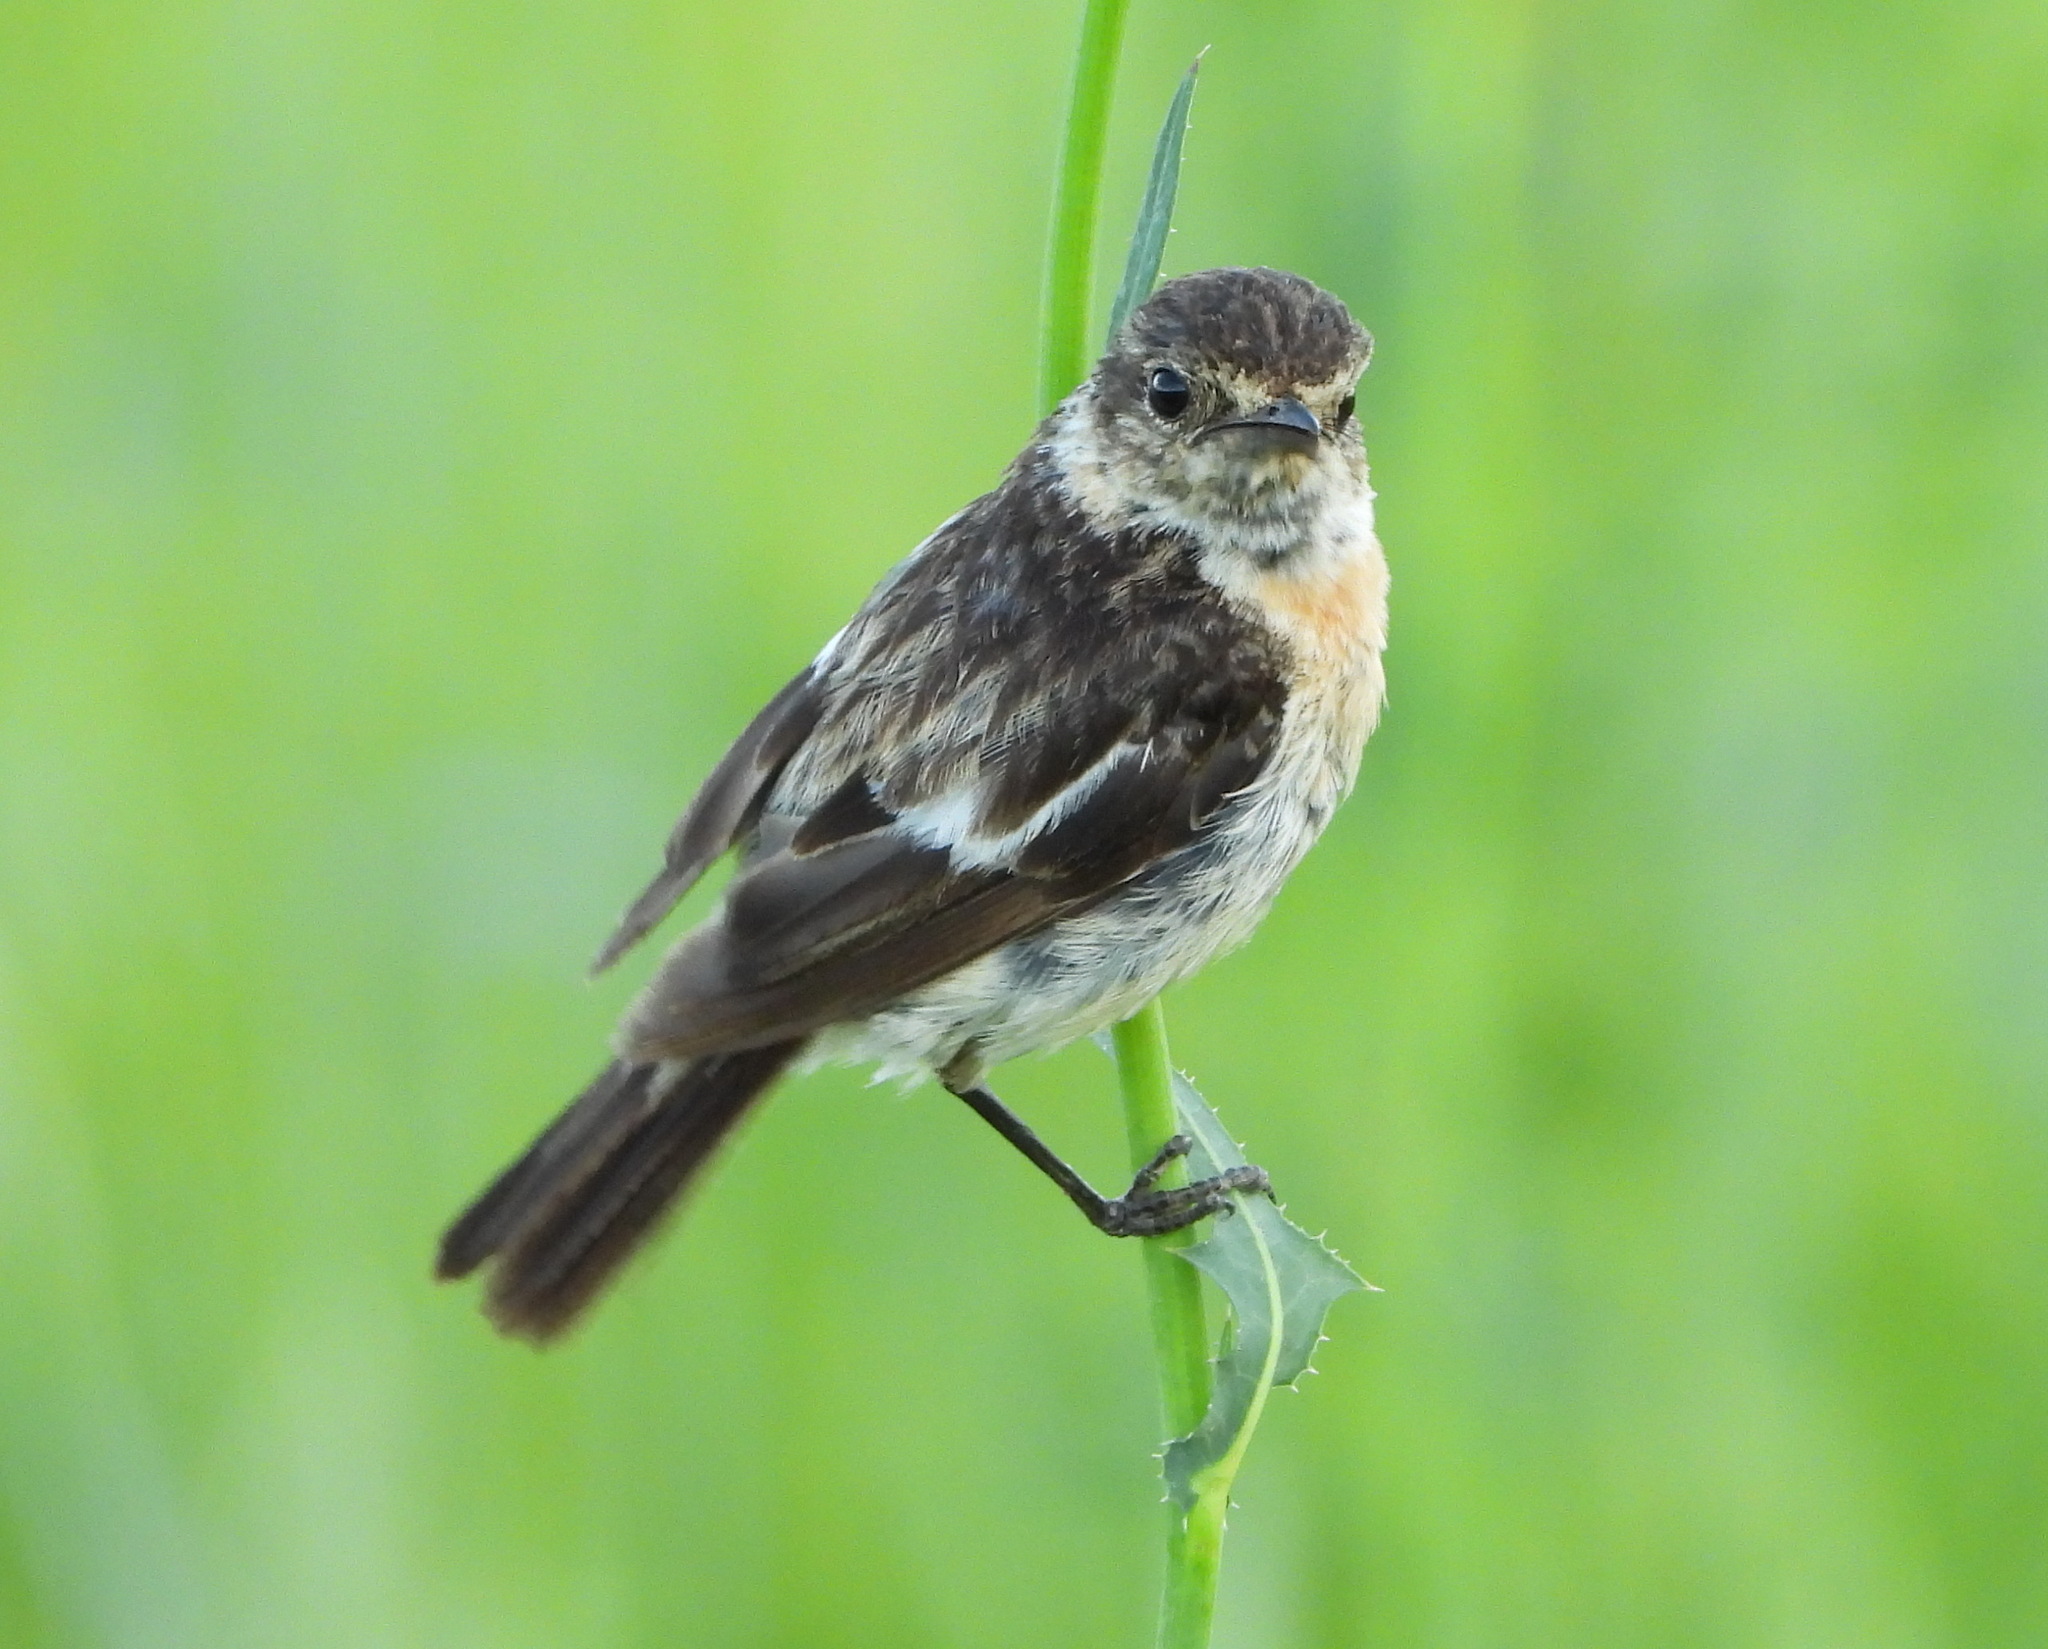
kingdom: Animalia
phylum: Chordata
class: Aves
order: Passeriformes
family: Muscicapidae
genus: Saxicola
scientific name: Saxicola maurus
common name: Siberian stonechat
